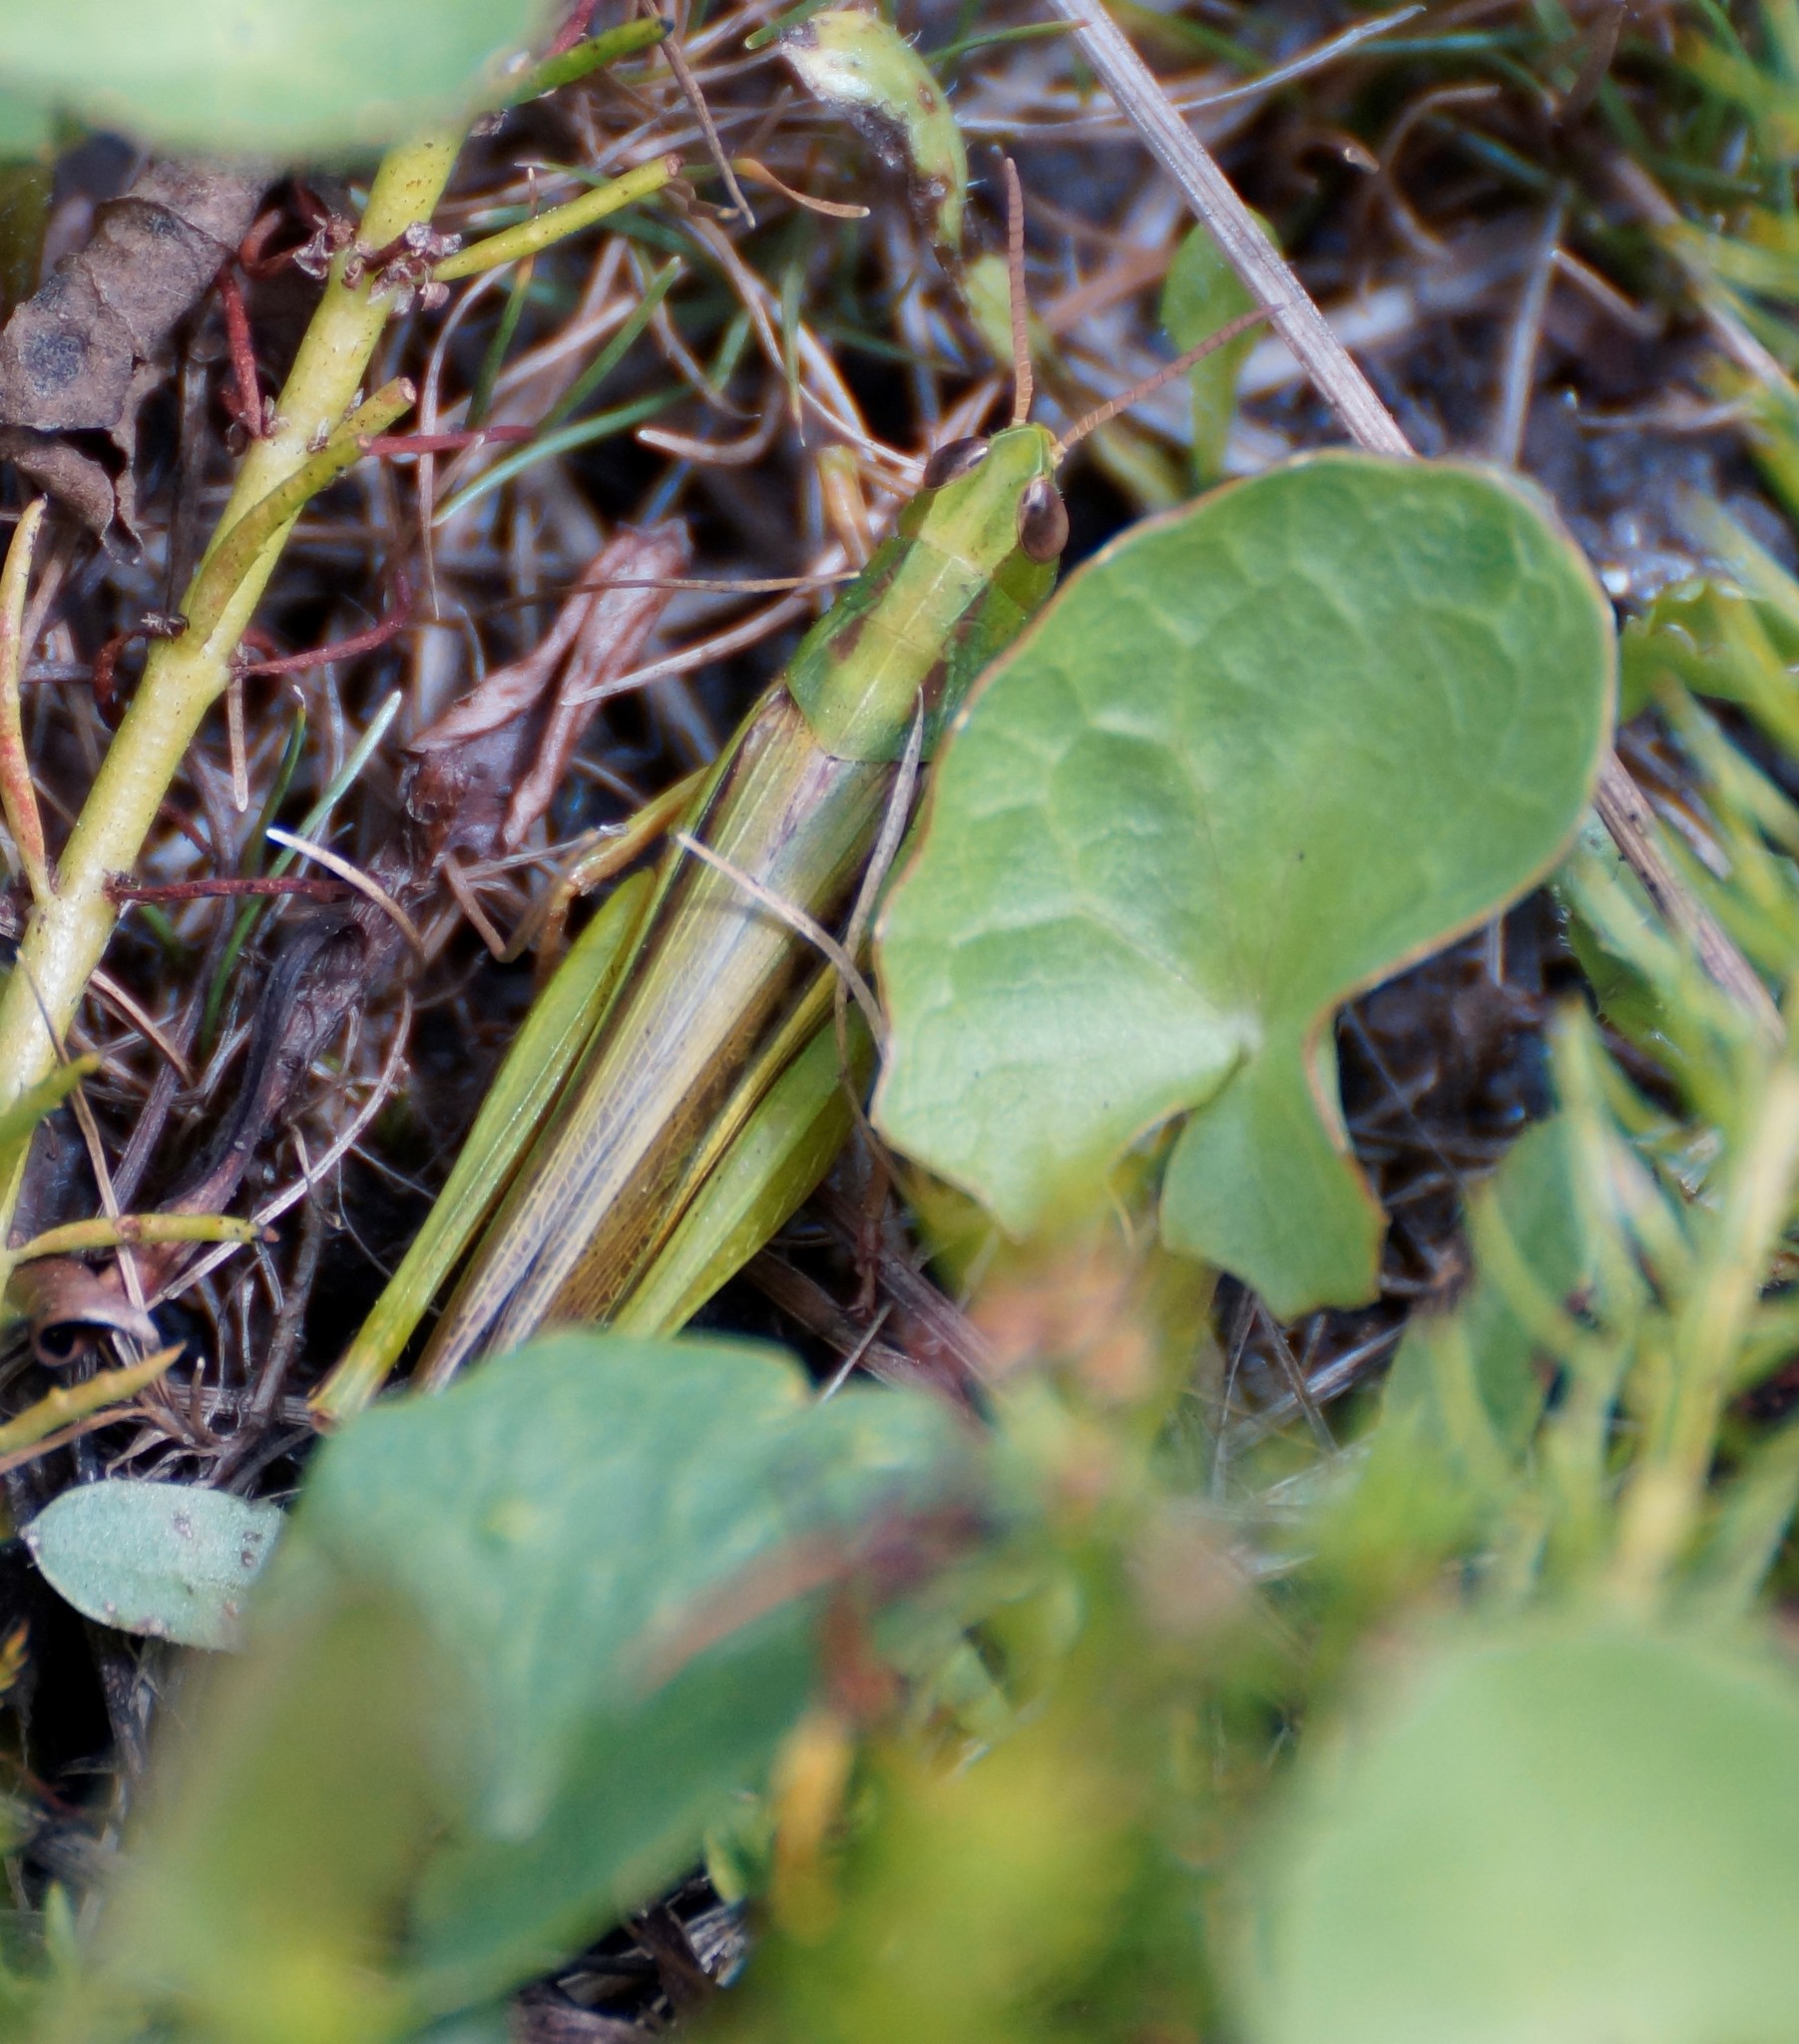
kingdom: Animalia
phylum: Arthropoda
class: Insecta
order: Orthoptera
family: Acrididae
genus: Schizobothrus
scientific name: Schizobothrus flavovittatus
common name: Disappearing grasshopper
